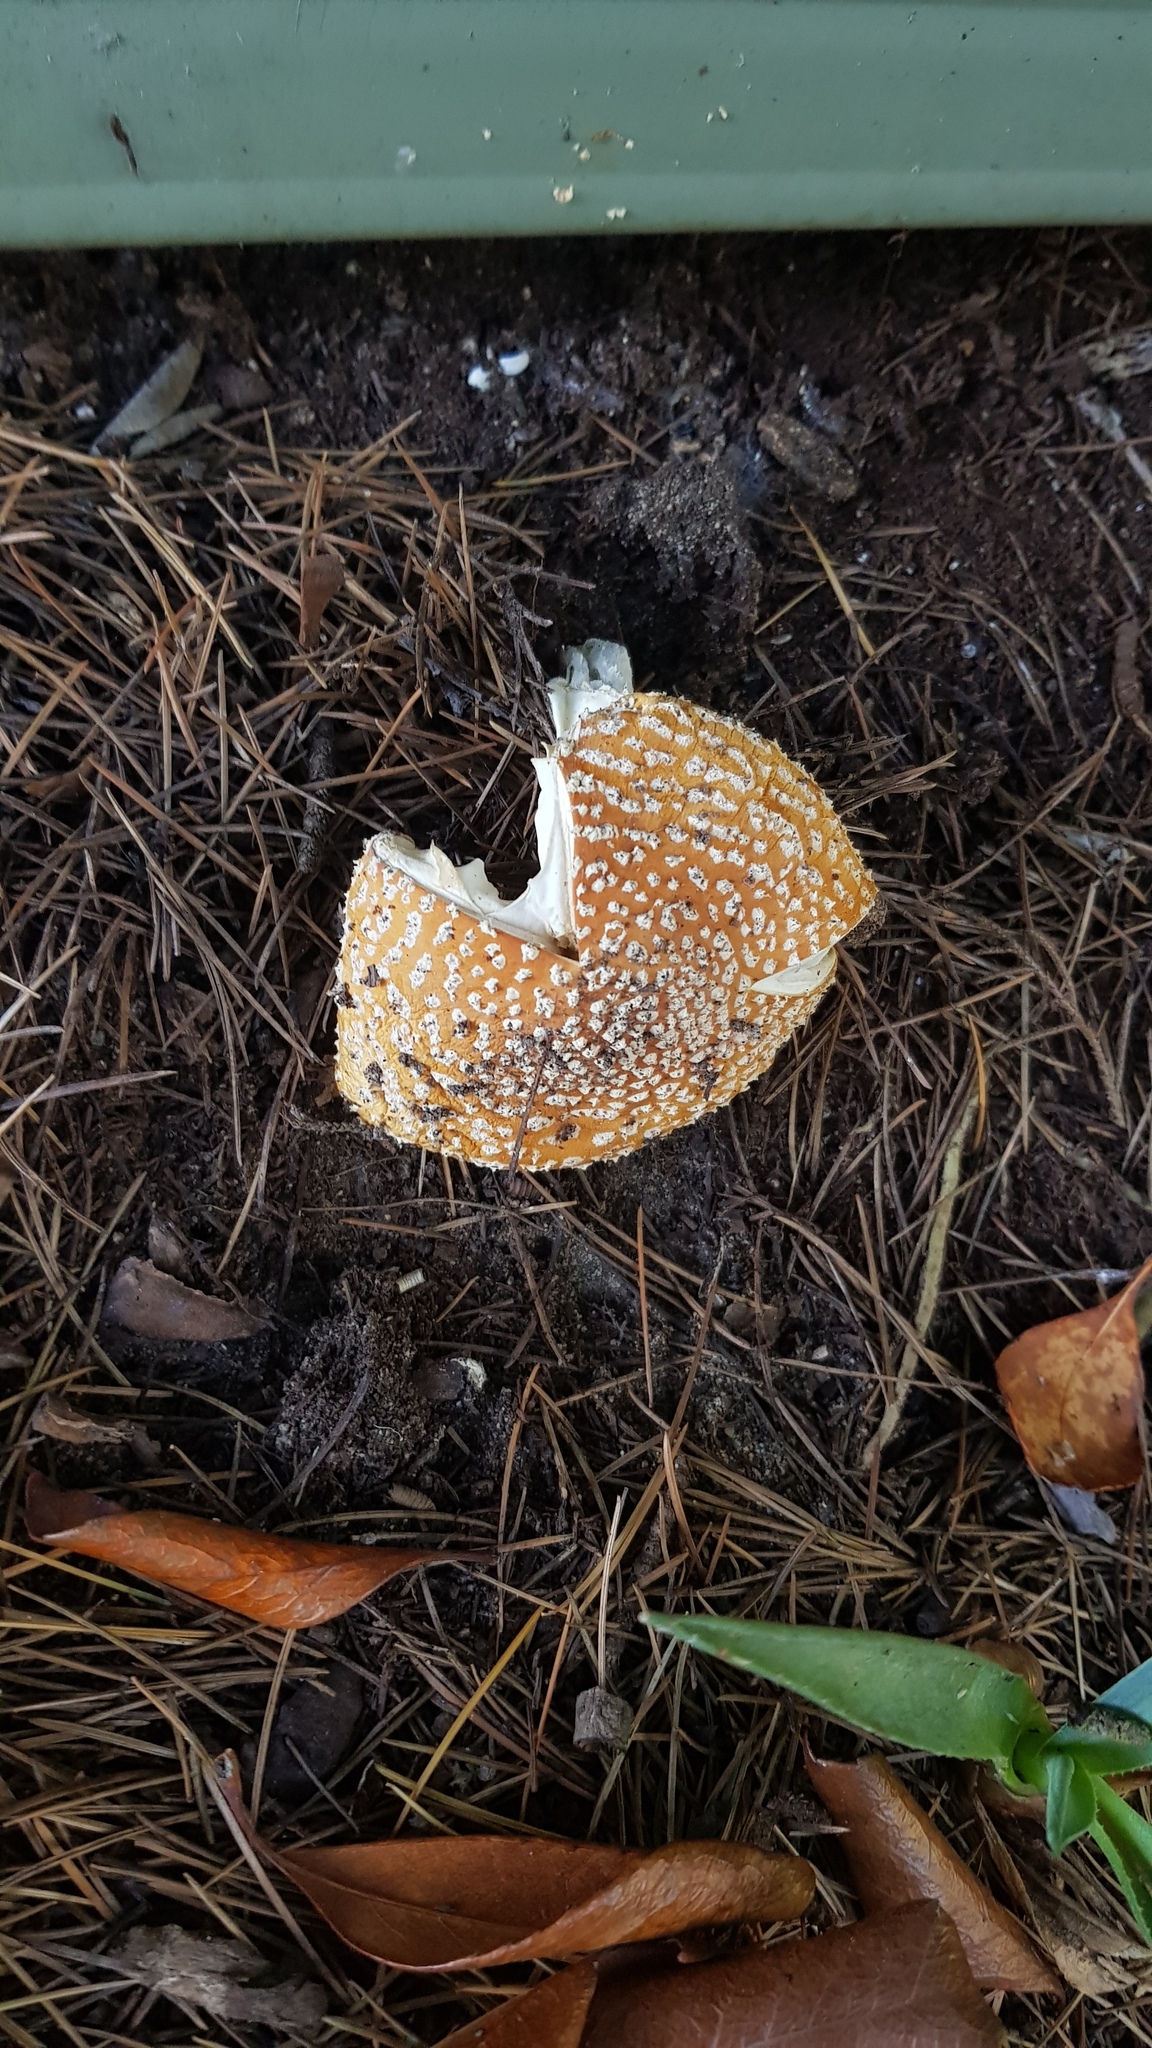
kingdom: Fungi
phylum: Basidiomycota
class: Agaricomycetes
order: Agaricales
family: Amanitaceae
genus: Amanita
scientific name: Amanita muscaria
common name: Fly agaric
